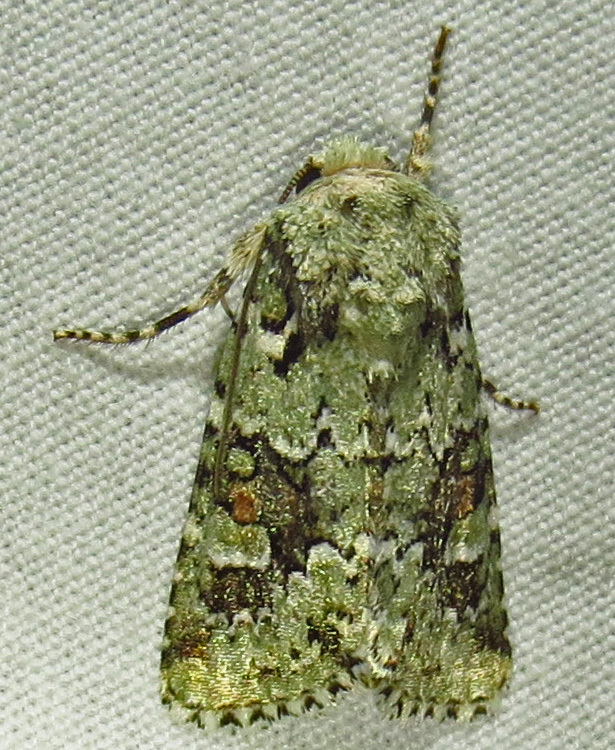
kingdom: Animalia
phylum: Arthropoda
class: Insecta
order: Lepidoptera
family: Noctuidae
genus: Lacinipolia
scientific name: Lacinipolia laudabilis
